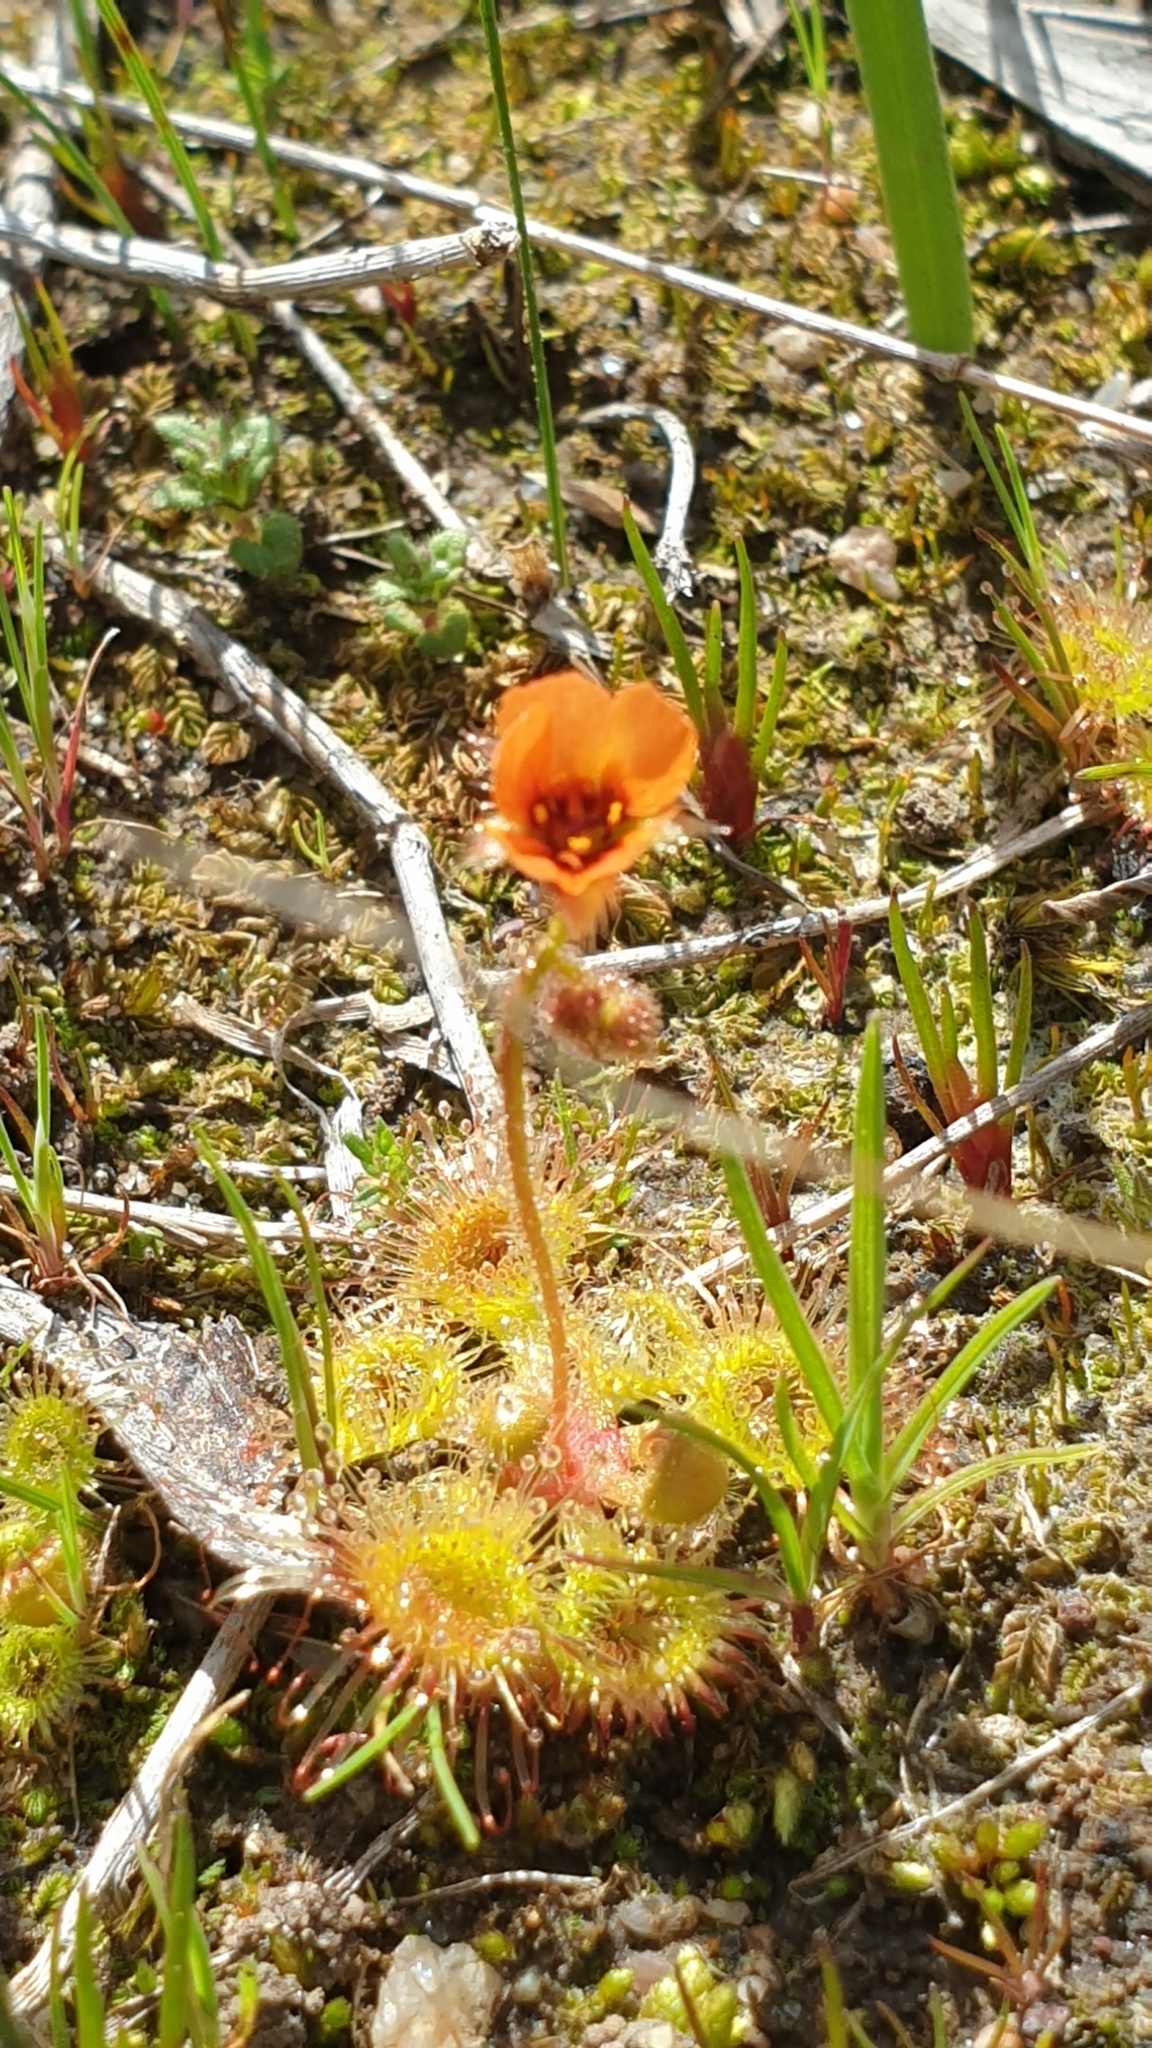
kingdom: Plantae
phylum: Tracheophyta
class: Magnoliopsida
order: Caryophyllales
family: Droseraceae
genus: Drosera
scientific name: Drosera glanduligera
